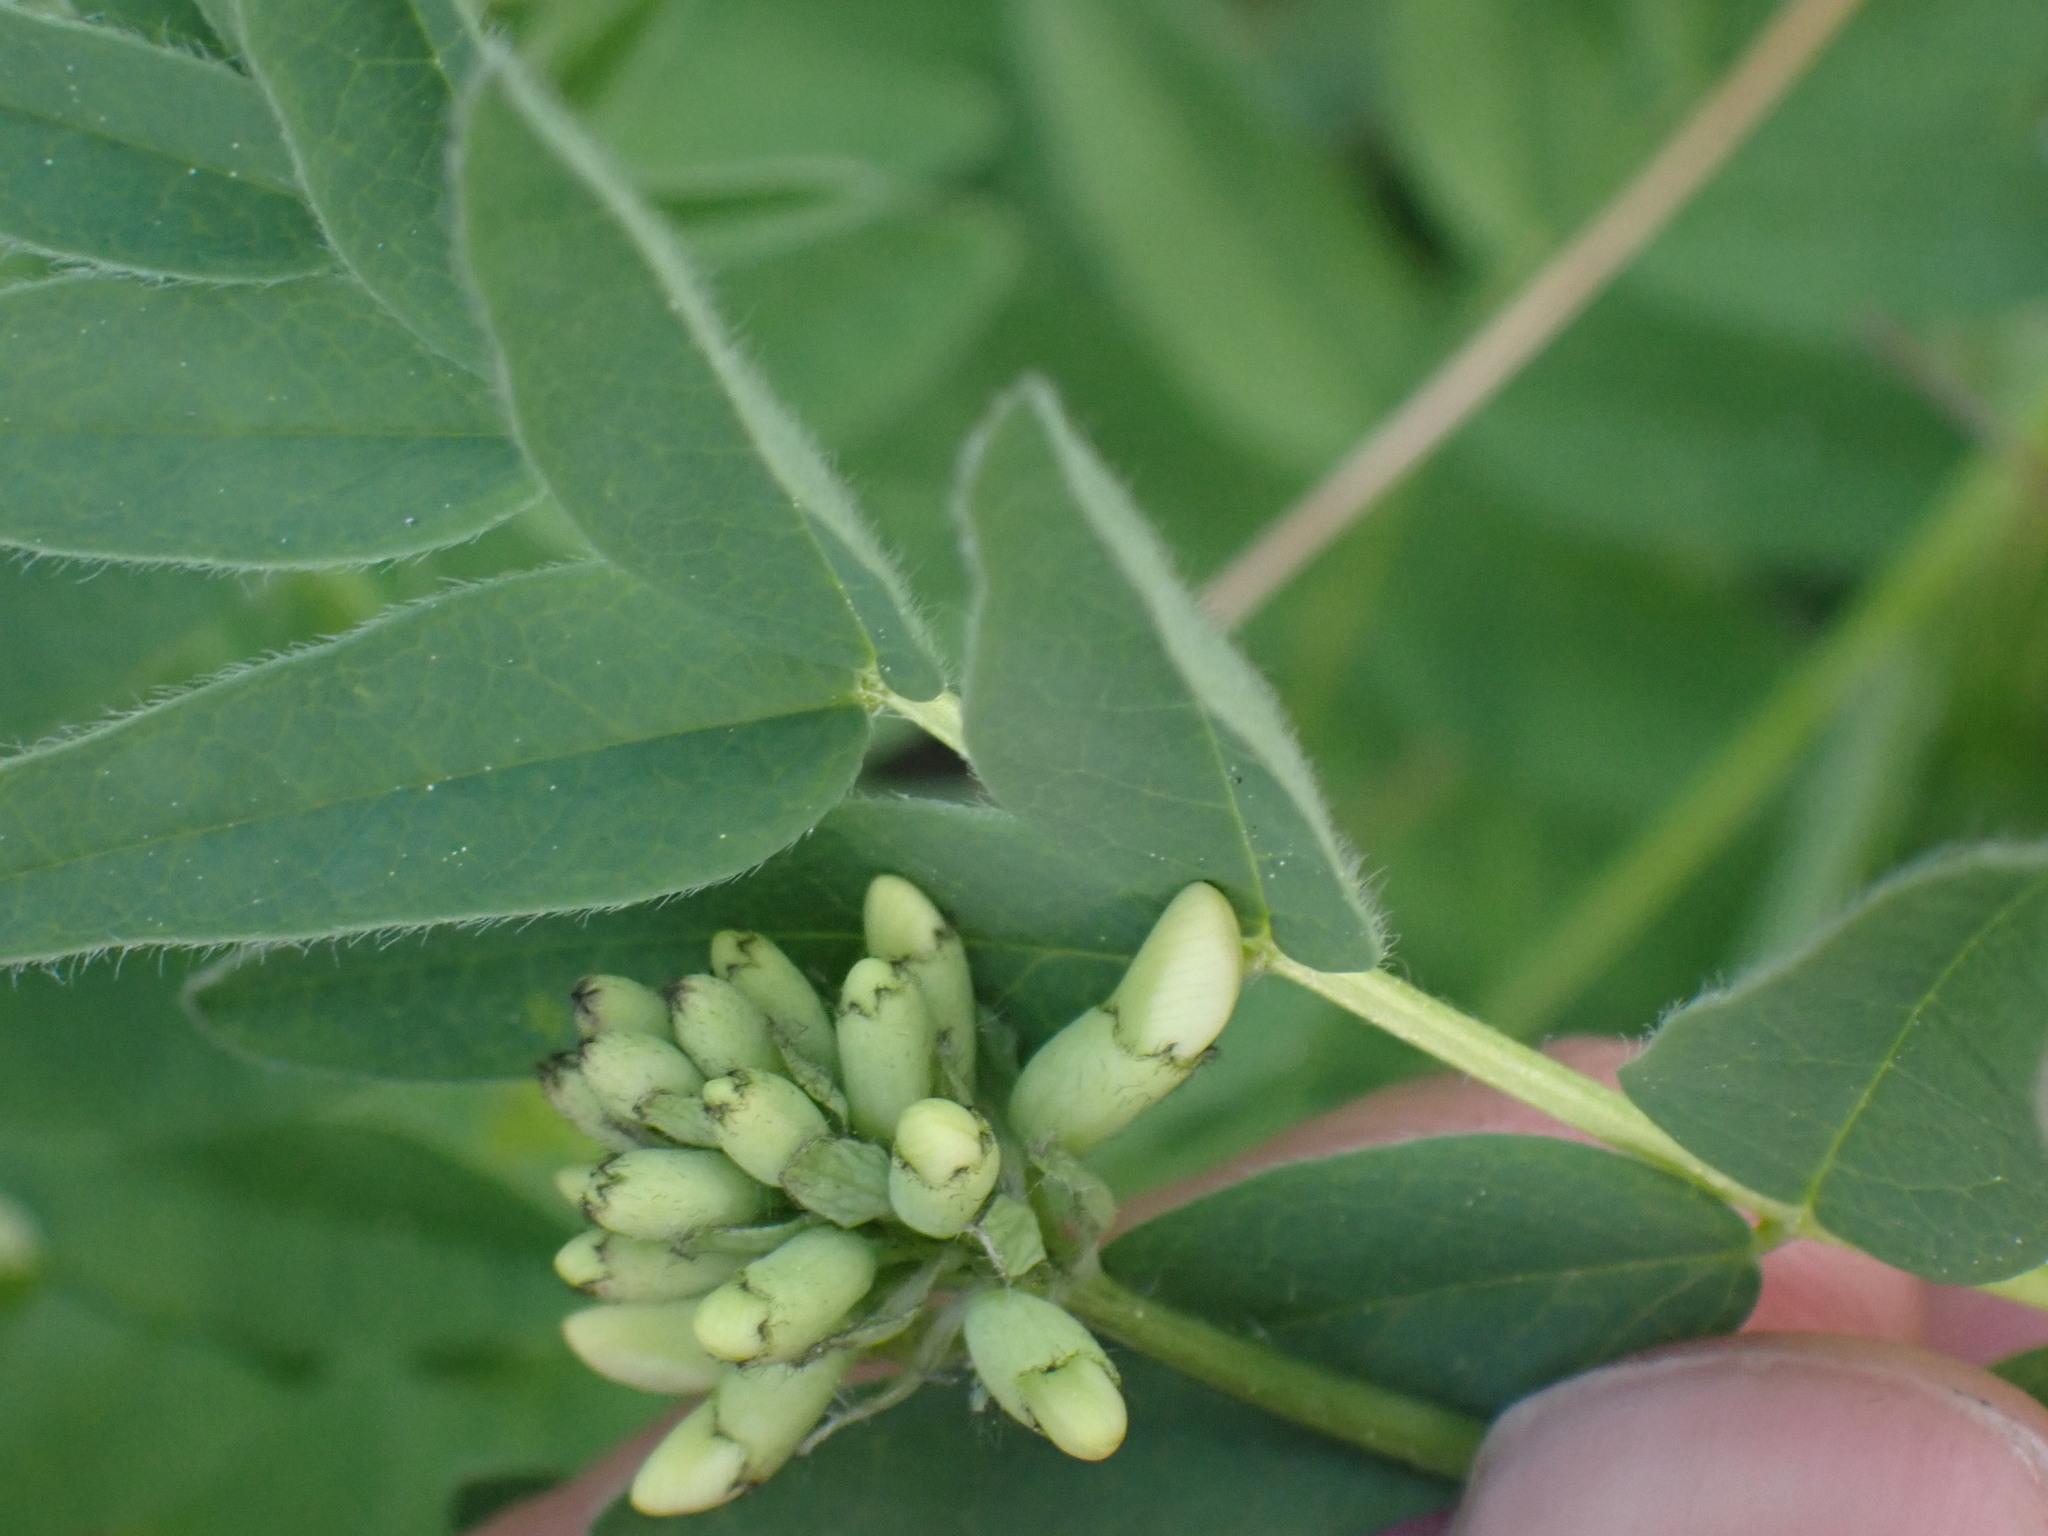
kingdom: Plantae
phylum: Tracheophyta
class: Magnoliopsida
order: Fabales
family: Fabaceae
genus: Astragalus
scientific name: Astragalus americanus
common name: American milk-vetch
